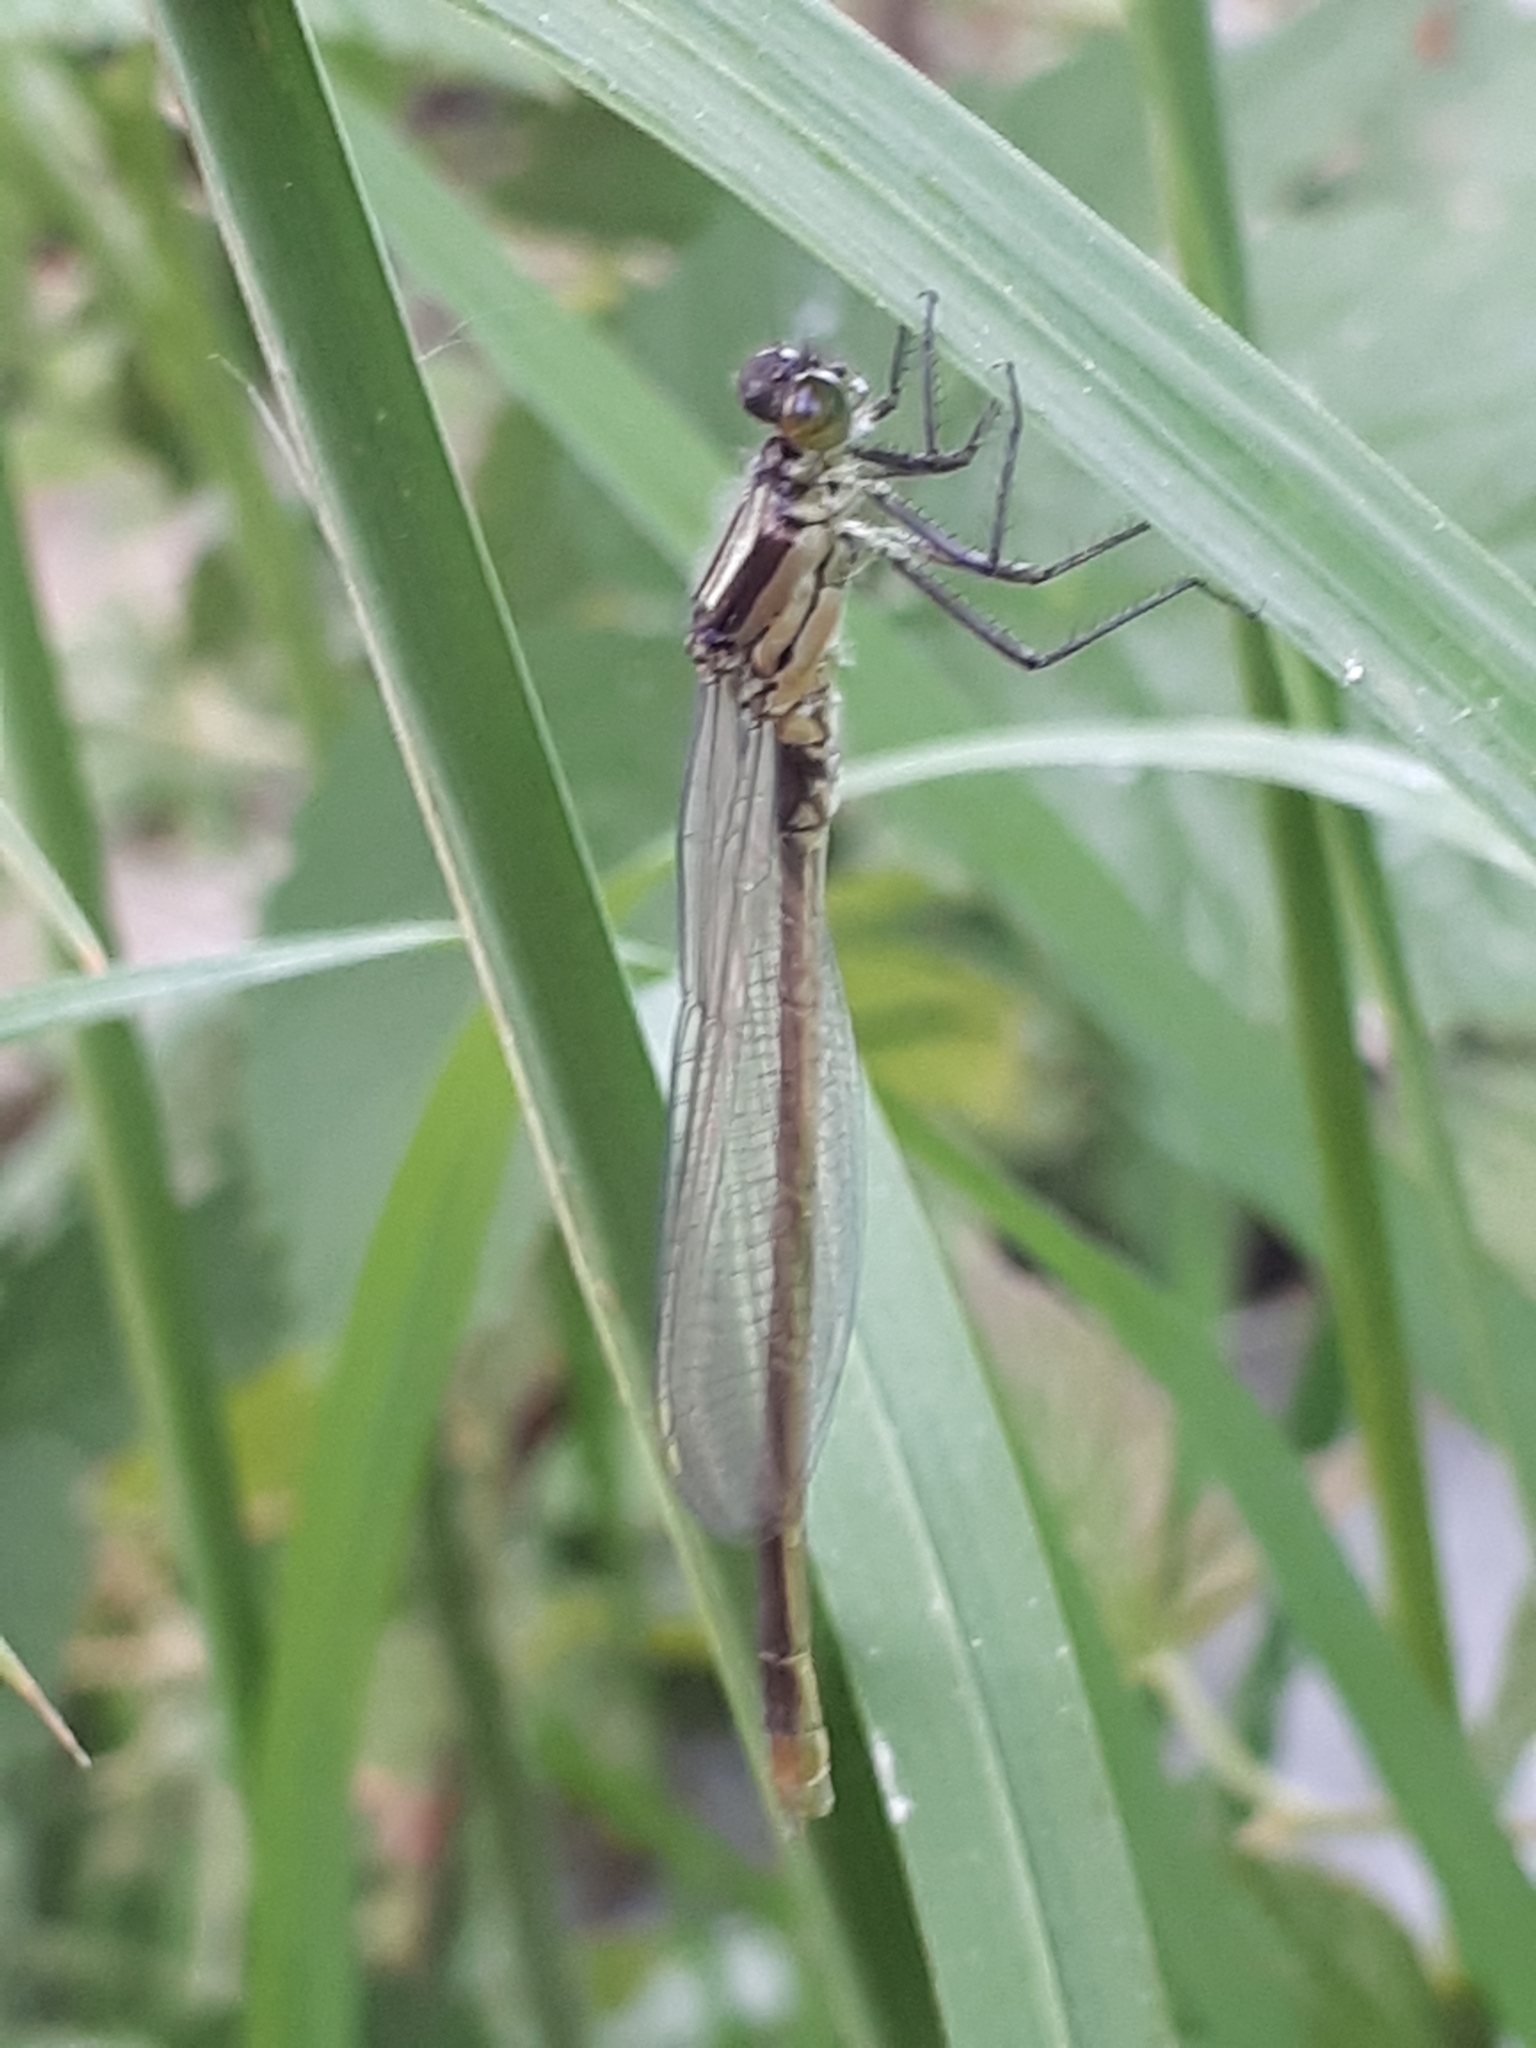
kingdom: Animalia
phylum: Arthropoda
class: Insecta
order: Odonata
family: Coenagrionidae
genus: Erythromma
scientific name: Erythromma najas
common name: Red-eyed damselfly
